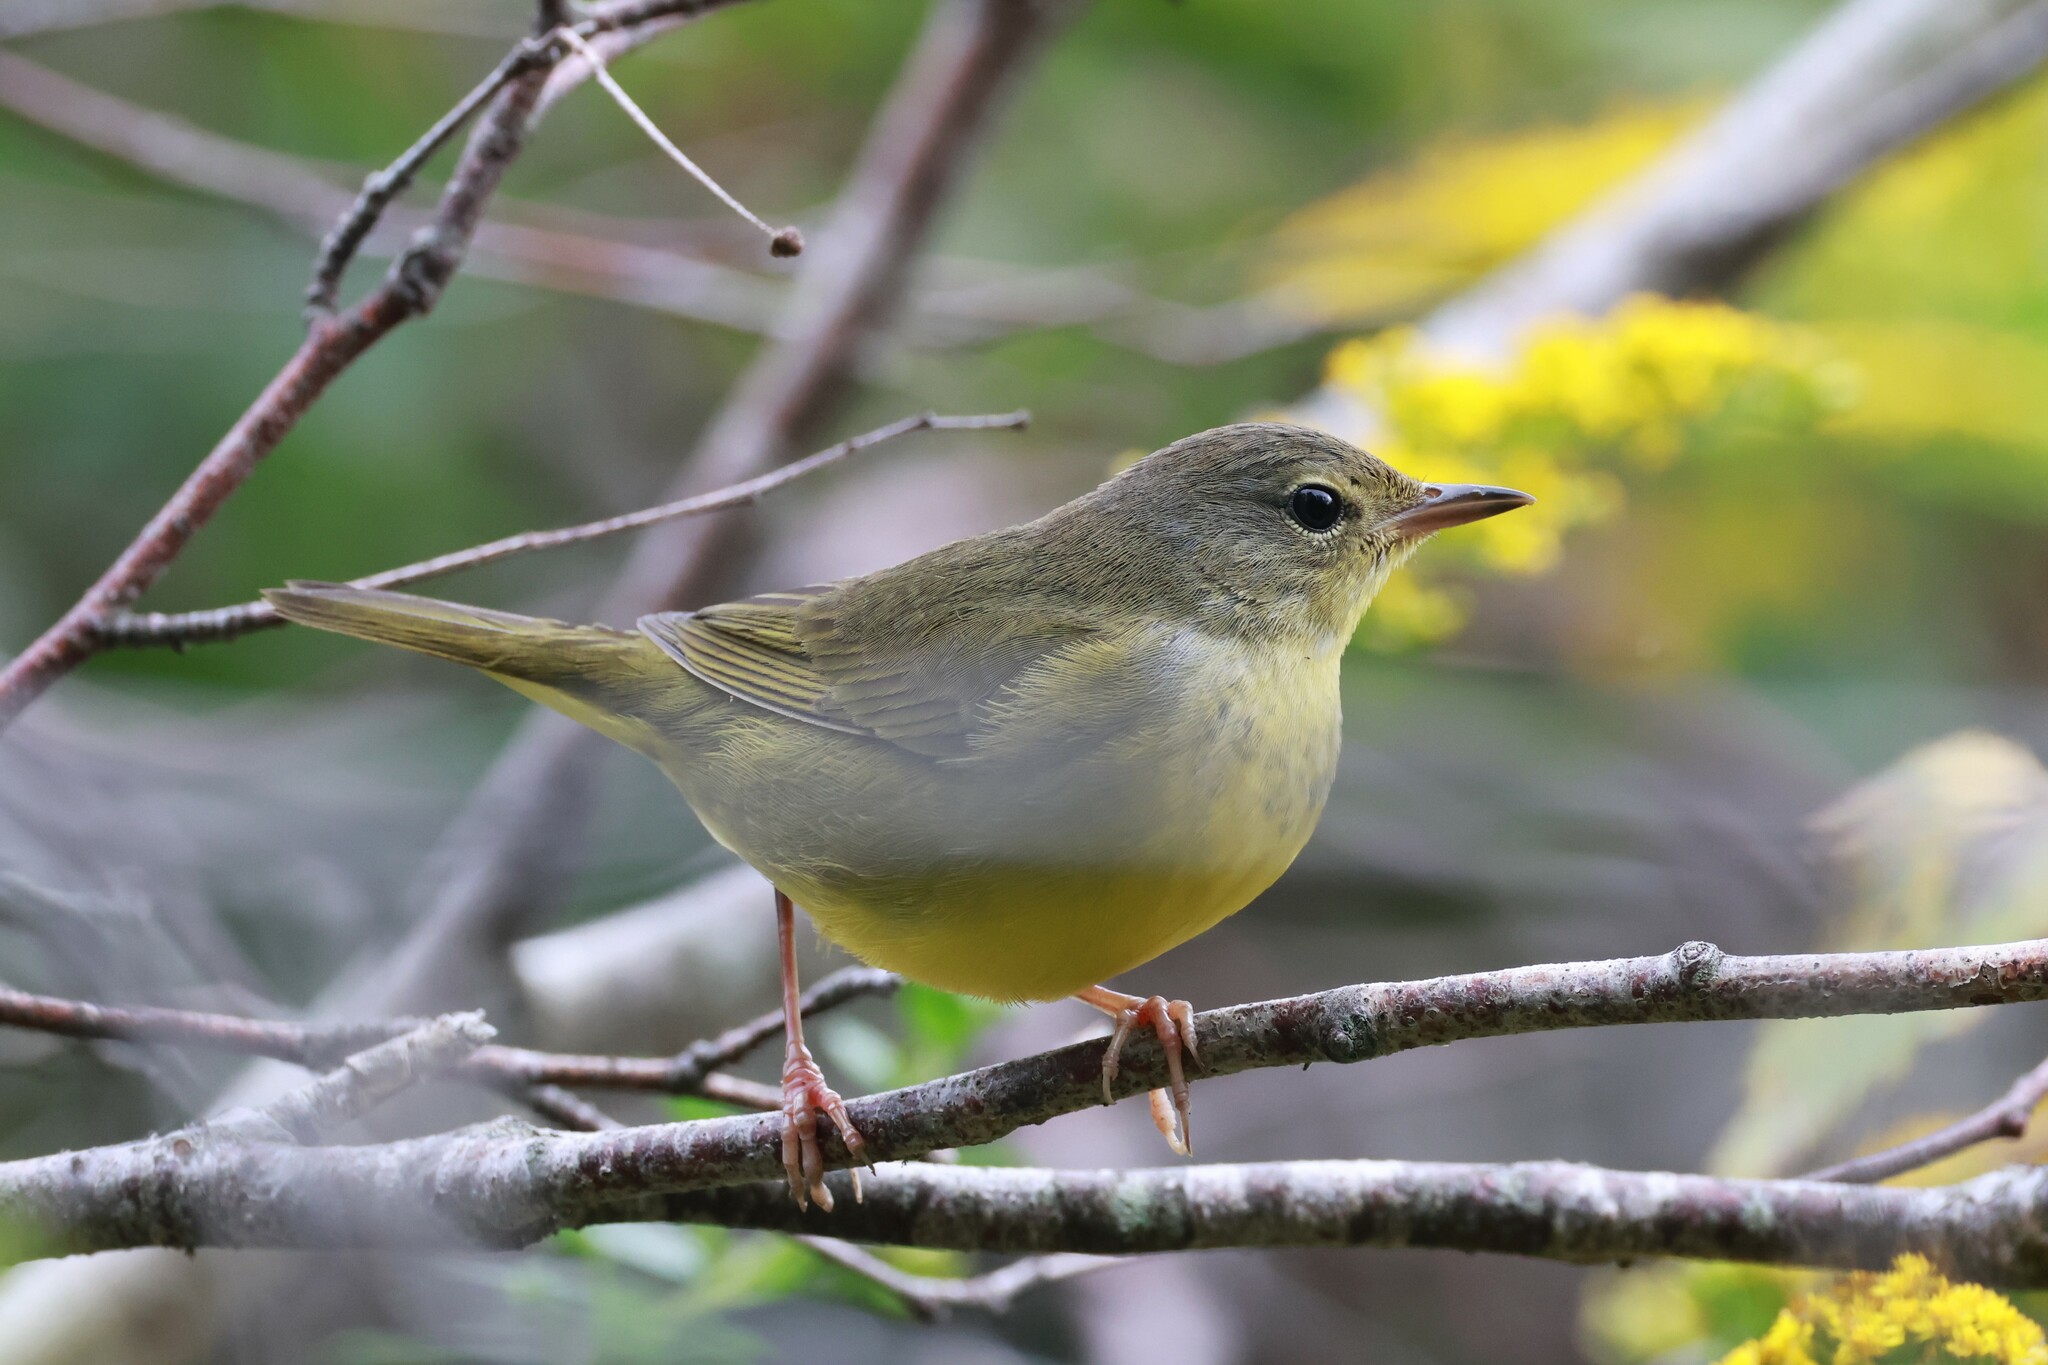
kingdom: Animalia
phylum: Chordata
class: Aves
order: Passeriformes
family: Parulidae
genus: Geothlypis
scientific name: Geothlypis philadelphia
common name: Mourning warbler
